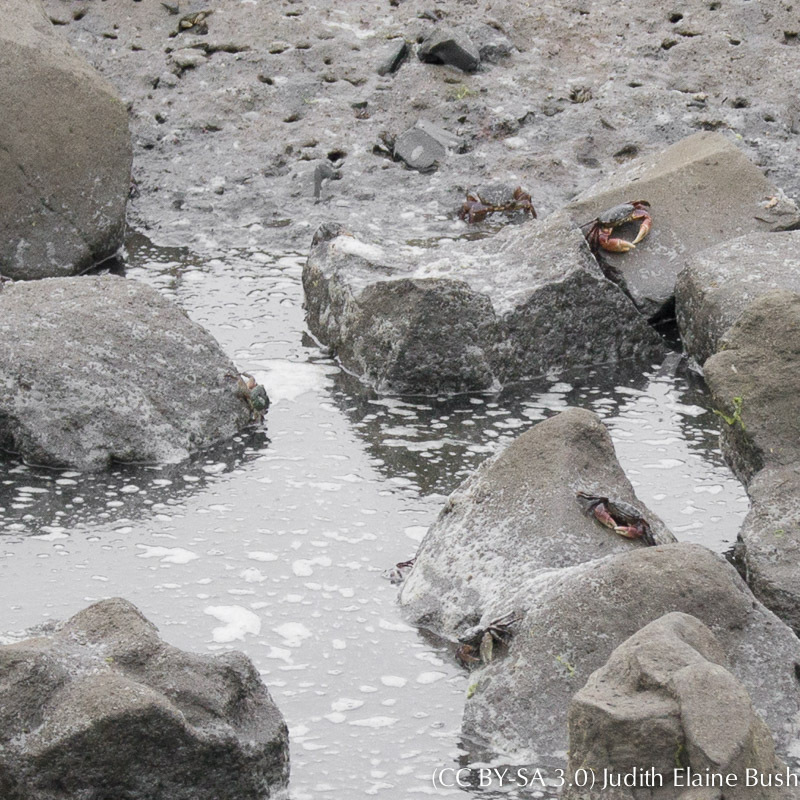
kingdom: Animalia
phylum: Arthropoda
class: Malacostraca
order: Decapoda
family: Grapsidae
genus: Pachygrapsus
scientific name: Pachygrapsus crassipes
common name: Striped shore crab
